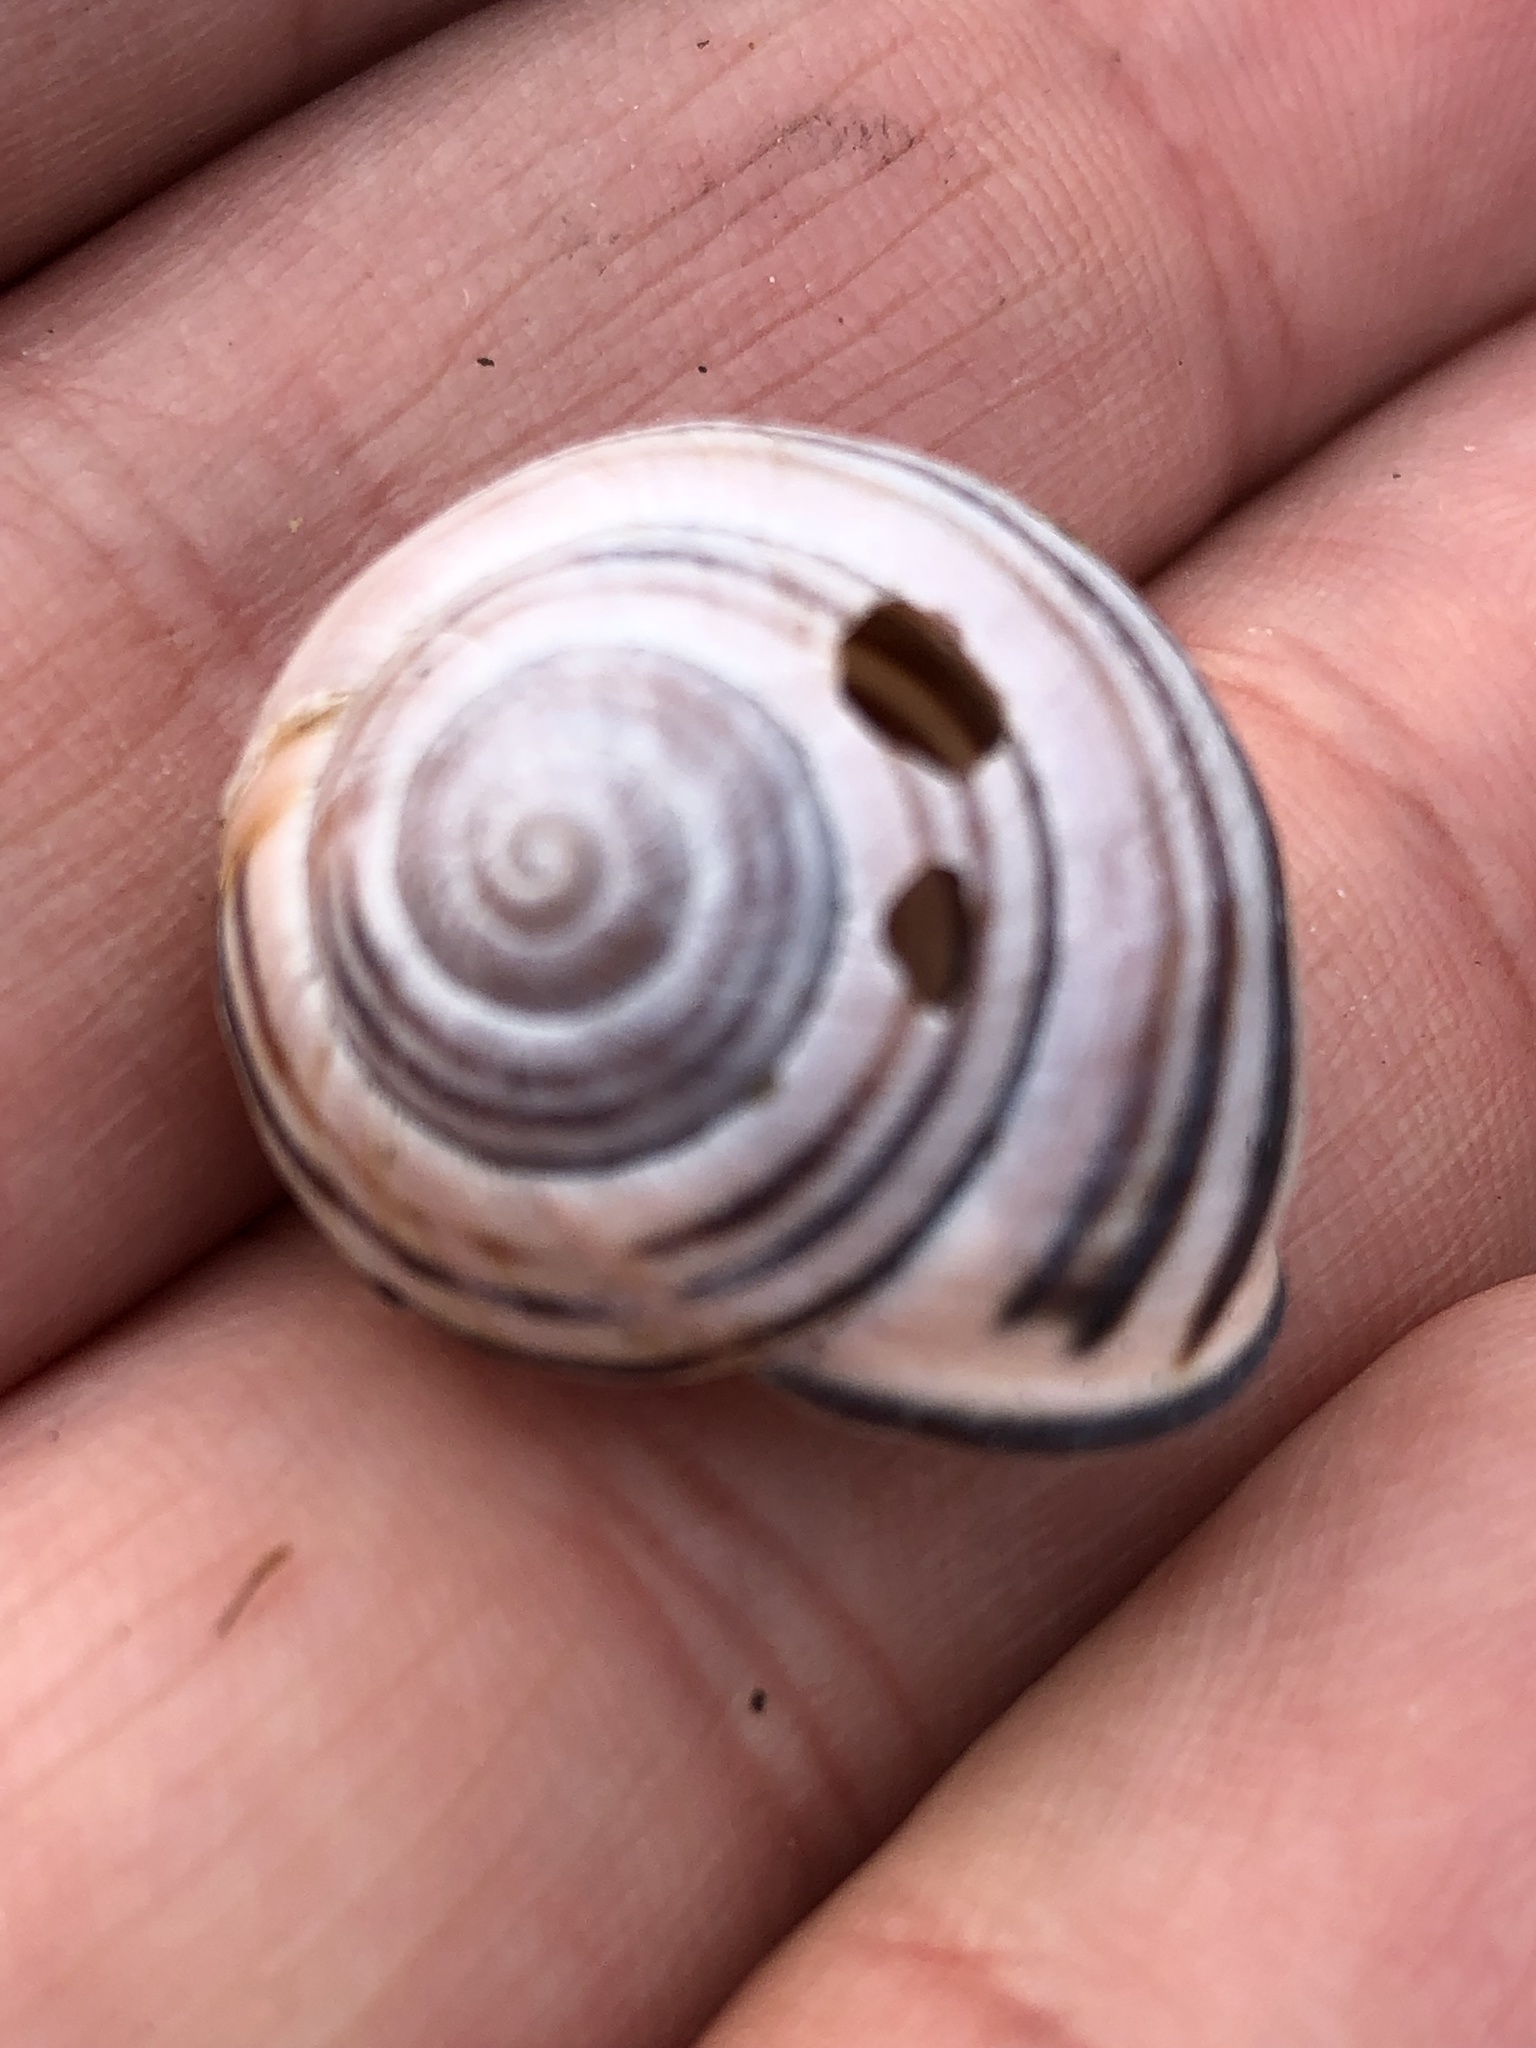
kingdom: Animalia
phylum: Mollusca
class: Gastropoda
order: Stylommatophora
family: Helicidae
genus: Cepaea
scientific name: Cepaea nemoralis
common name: Grovesnail
